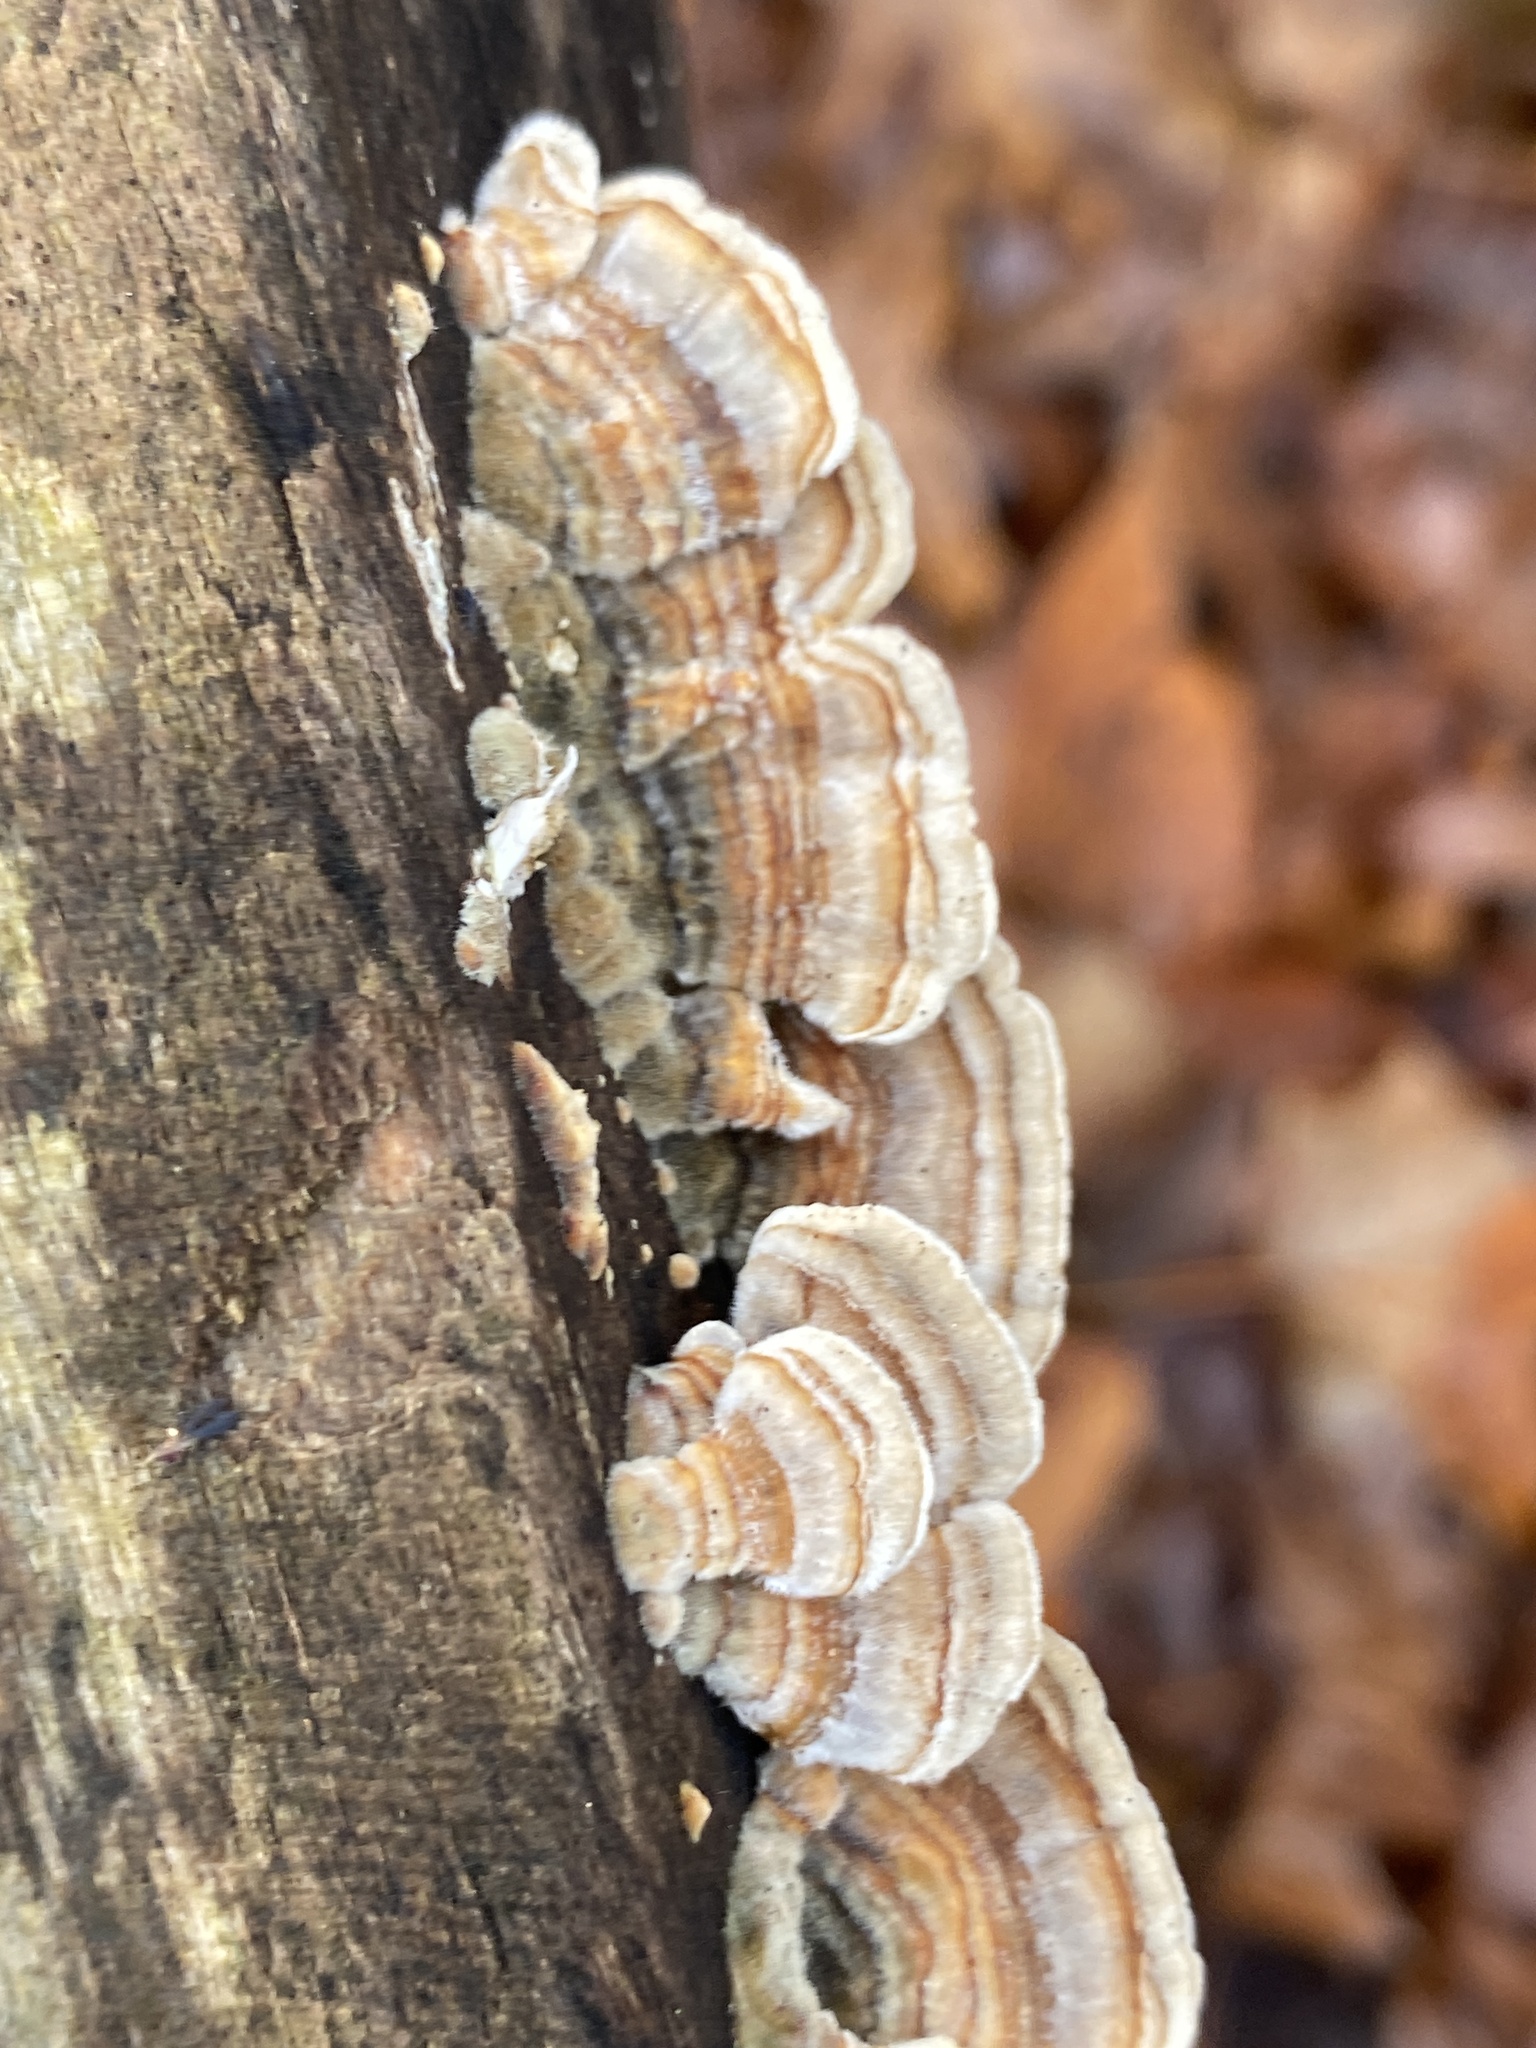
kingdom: Fungi
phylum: Basidiomycota
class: Agaricomycetes
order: Polyporales
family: Polyporaceae
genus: Trametes
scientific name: Trametes ochracea
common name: Ochre bracket
